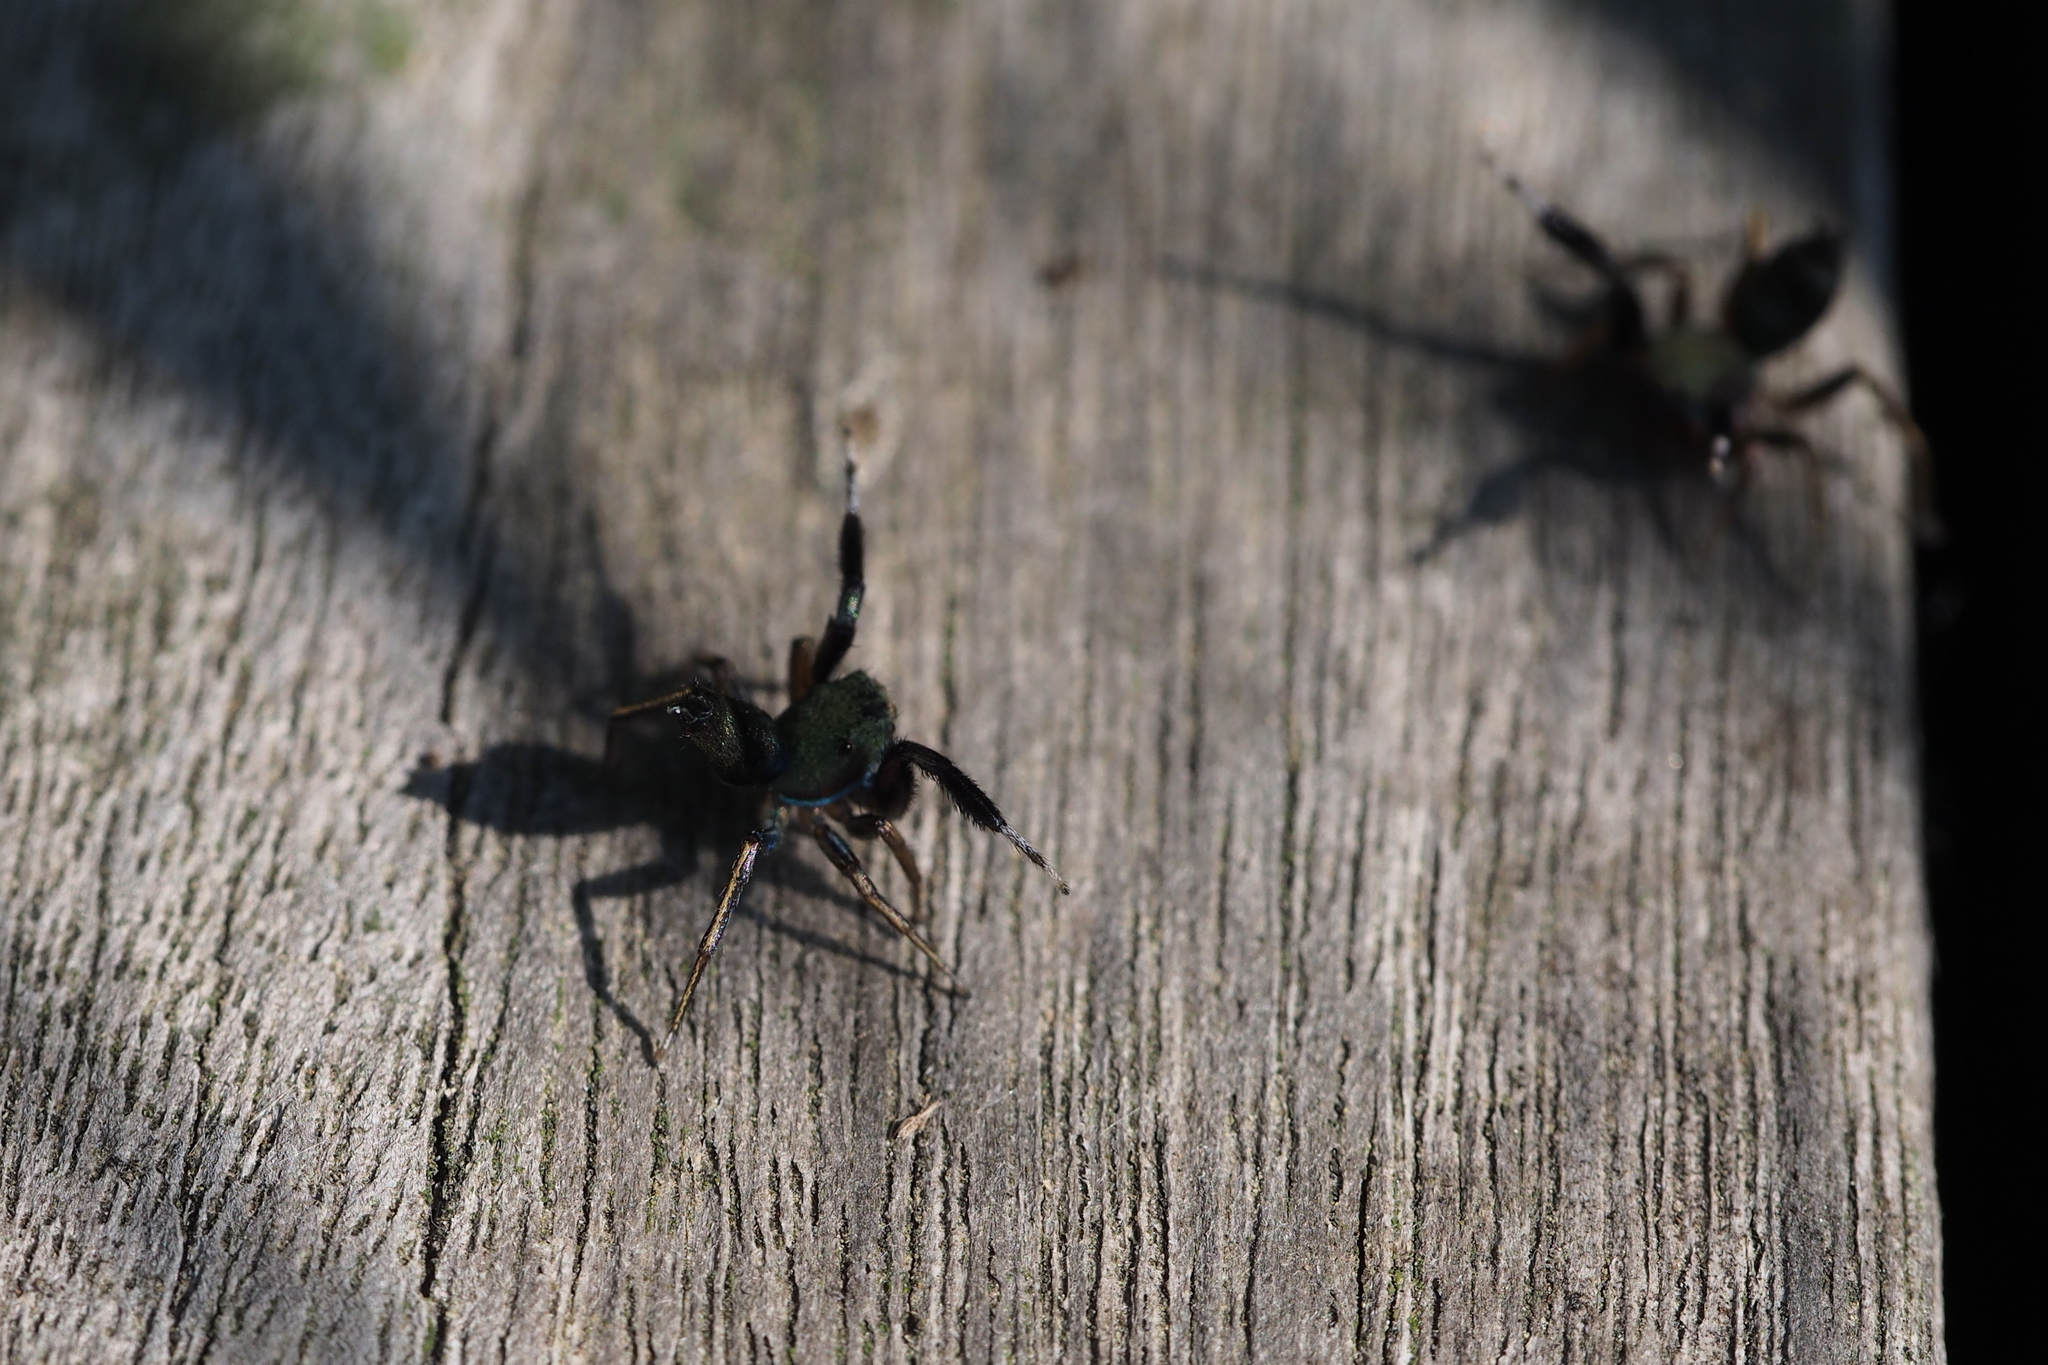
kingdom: Animalia
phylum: Arthropoda
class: Arachnida
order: Araneae
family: Salticidae
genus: Siler
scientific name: Siler cupreus
